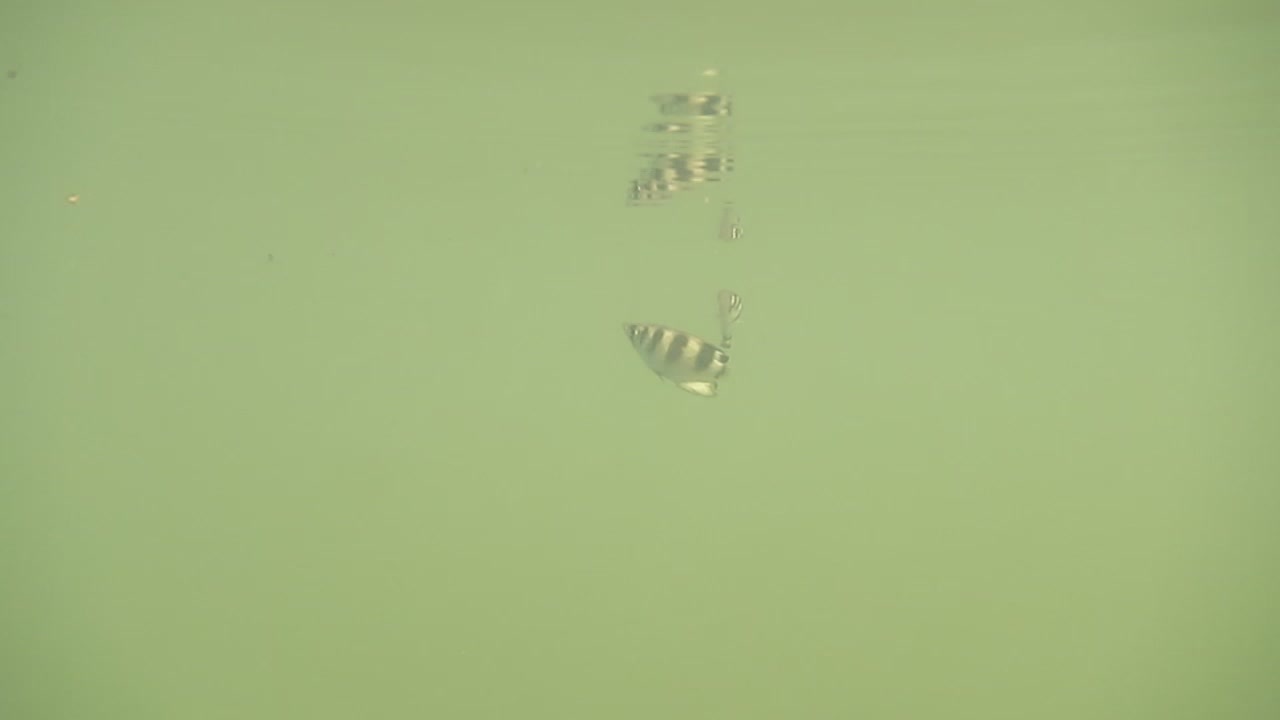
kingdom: Animalia
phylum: Chordata
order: Perciformes
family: Toxotidae
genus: Toxotes
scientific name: Toxotes jaculatrix
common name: Banded archerfish
